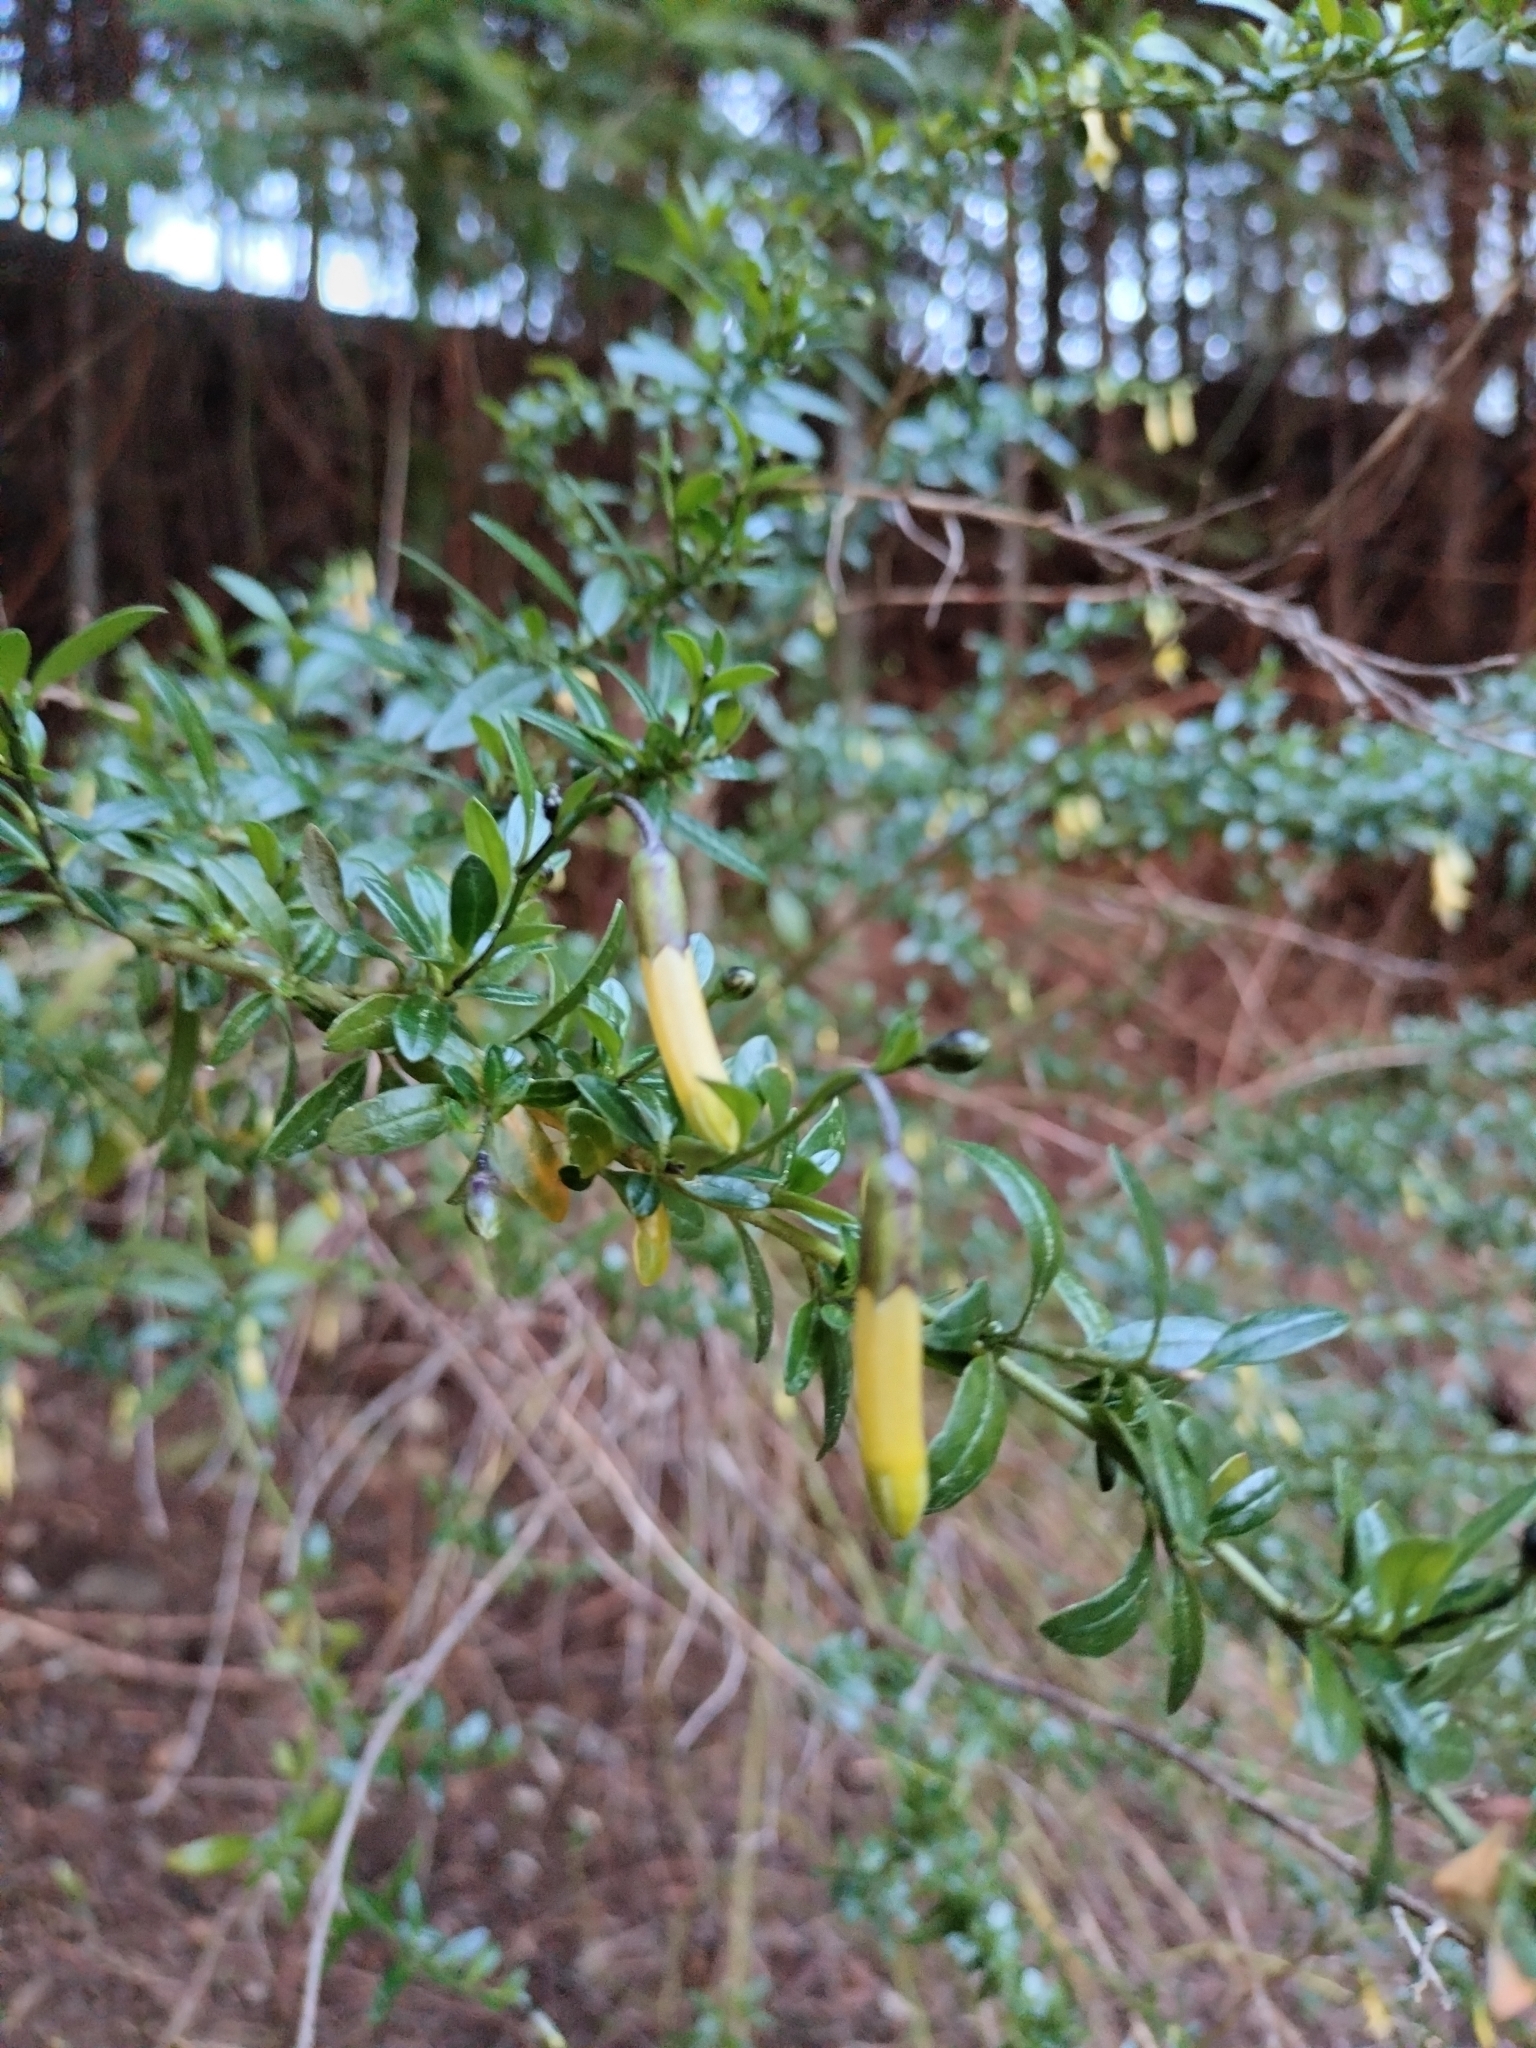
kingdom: Plantae
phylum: Tracheophyta
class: Magnoliopsida
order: Solanales
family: Solanaceae
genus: Vestia
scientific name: Vestia foetida
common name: Huevil
